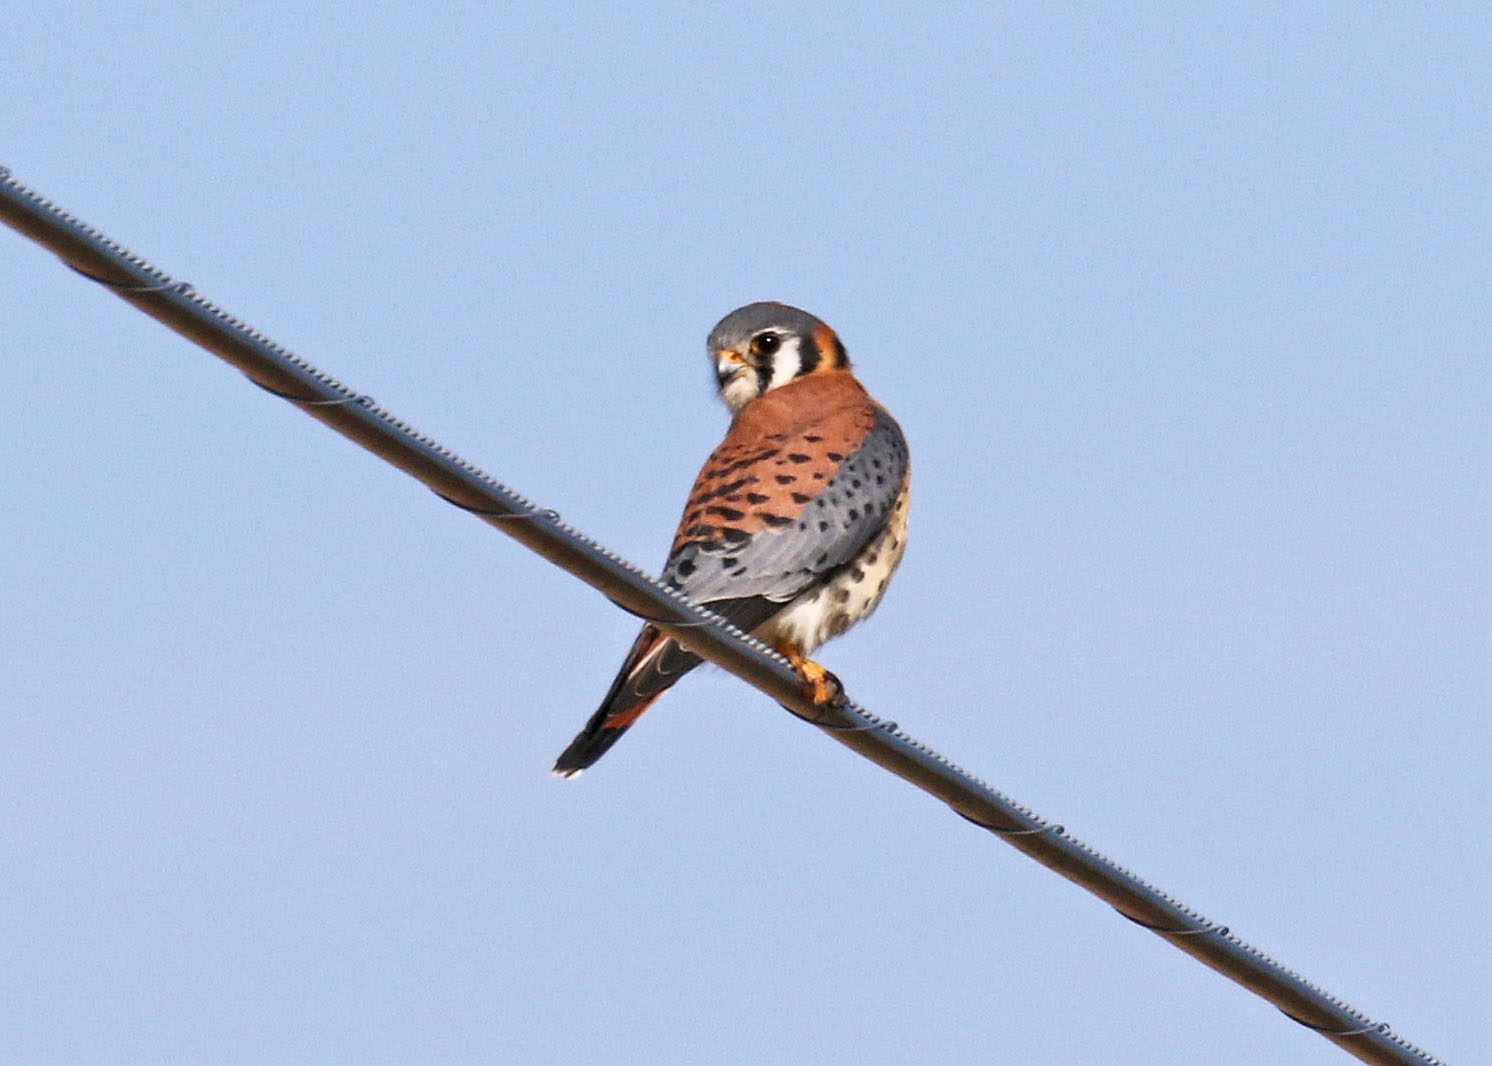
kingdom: Animalia
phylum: Chordata
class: Aves
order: Falconiformes
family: Falconidae
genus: Falco
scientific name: Falco sparverius
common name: American kestrel
